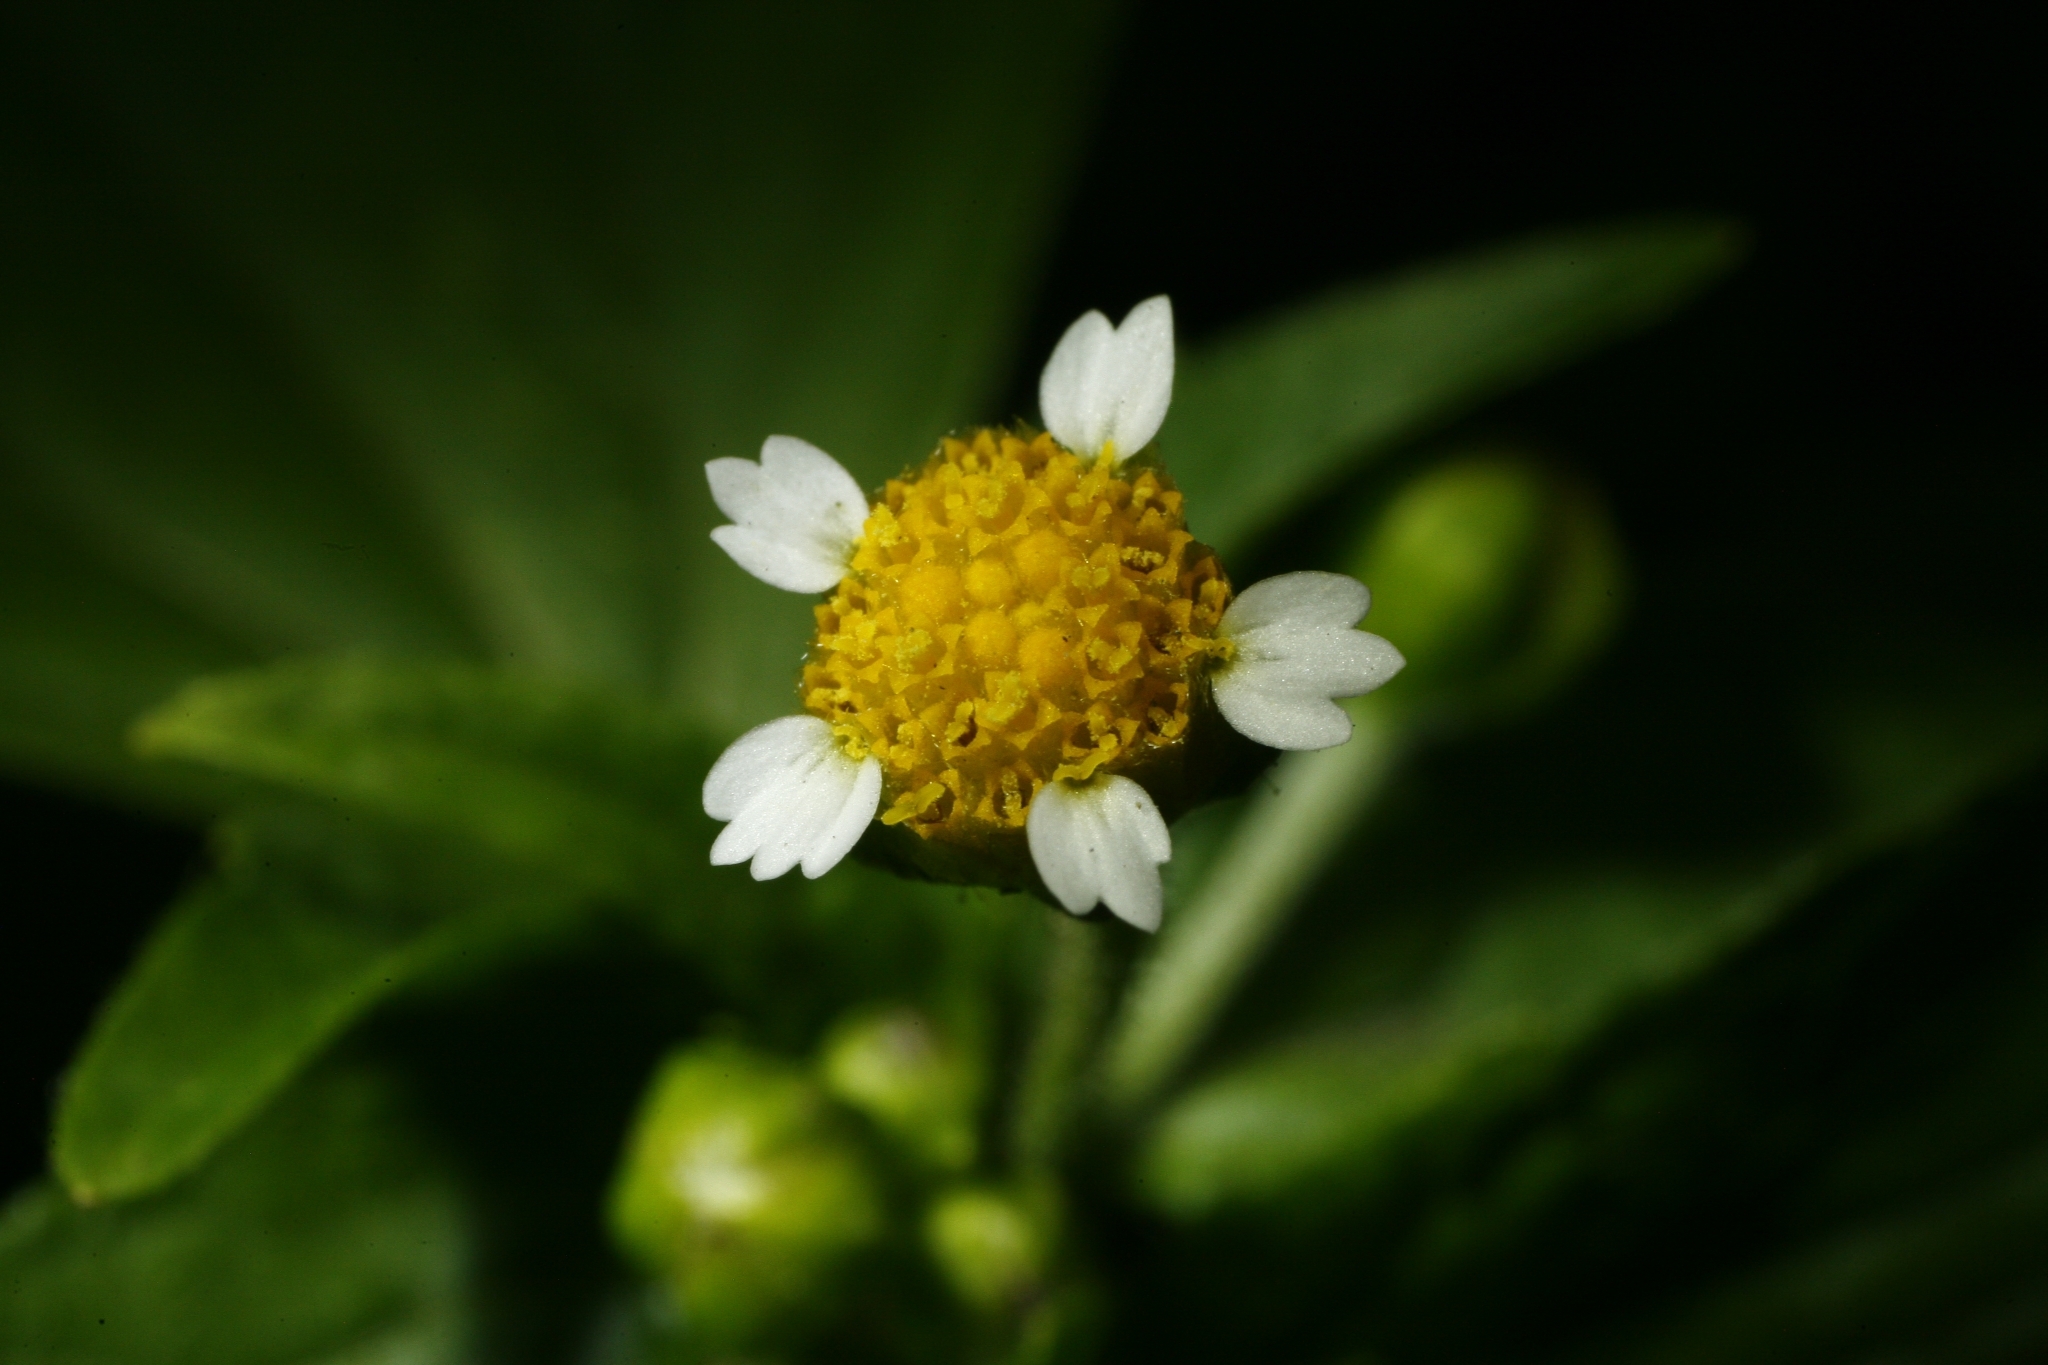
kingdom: Plantae
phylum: Tracheophyta
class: Magnoliopsida
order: Asterales
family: Asteraceae
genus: Galinsoga
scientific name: Galinsoga parviflora
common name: Gallant soldier
